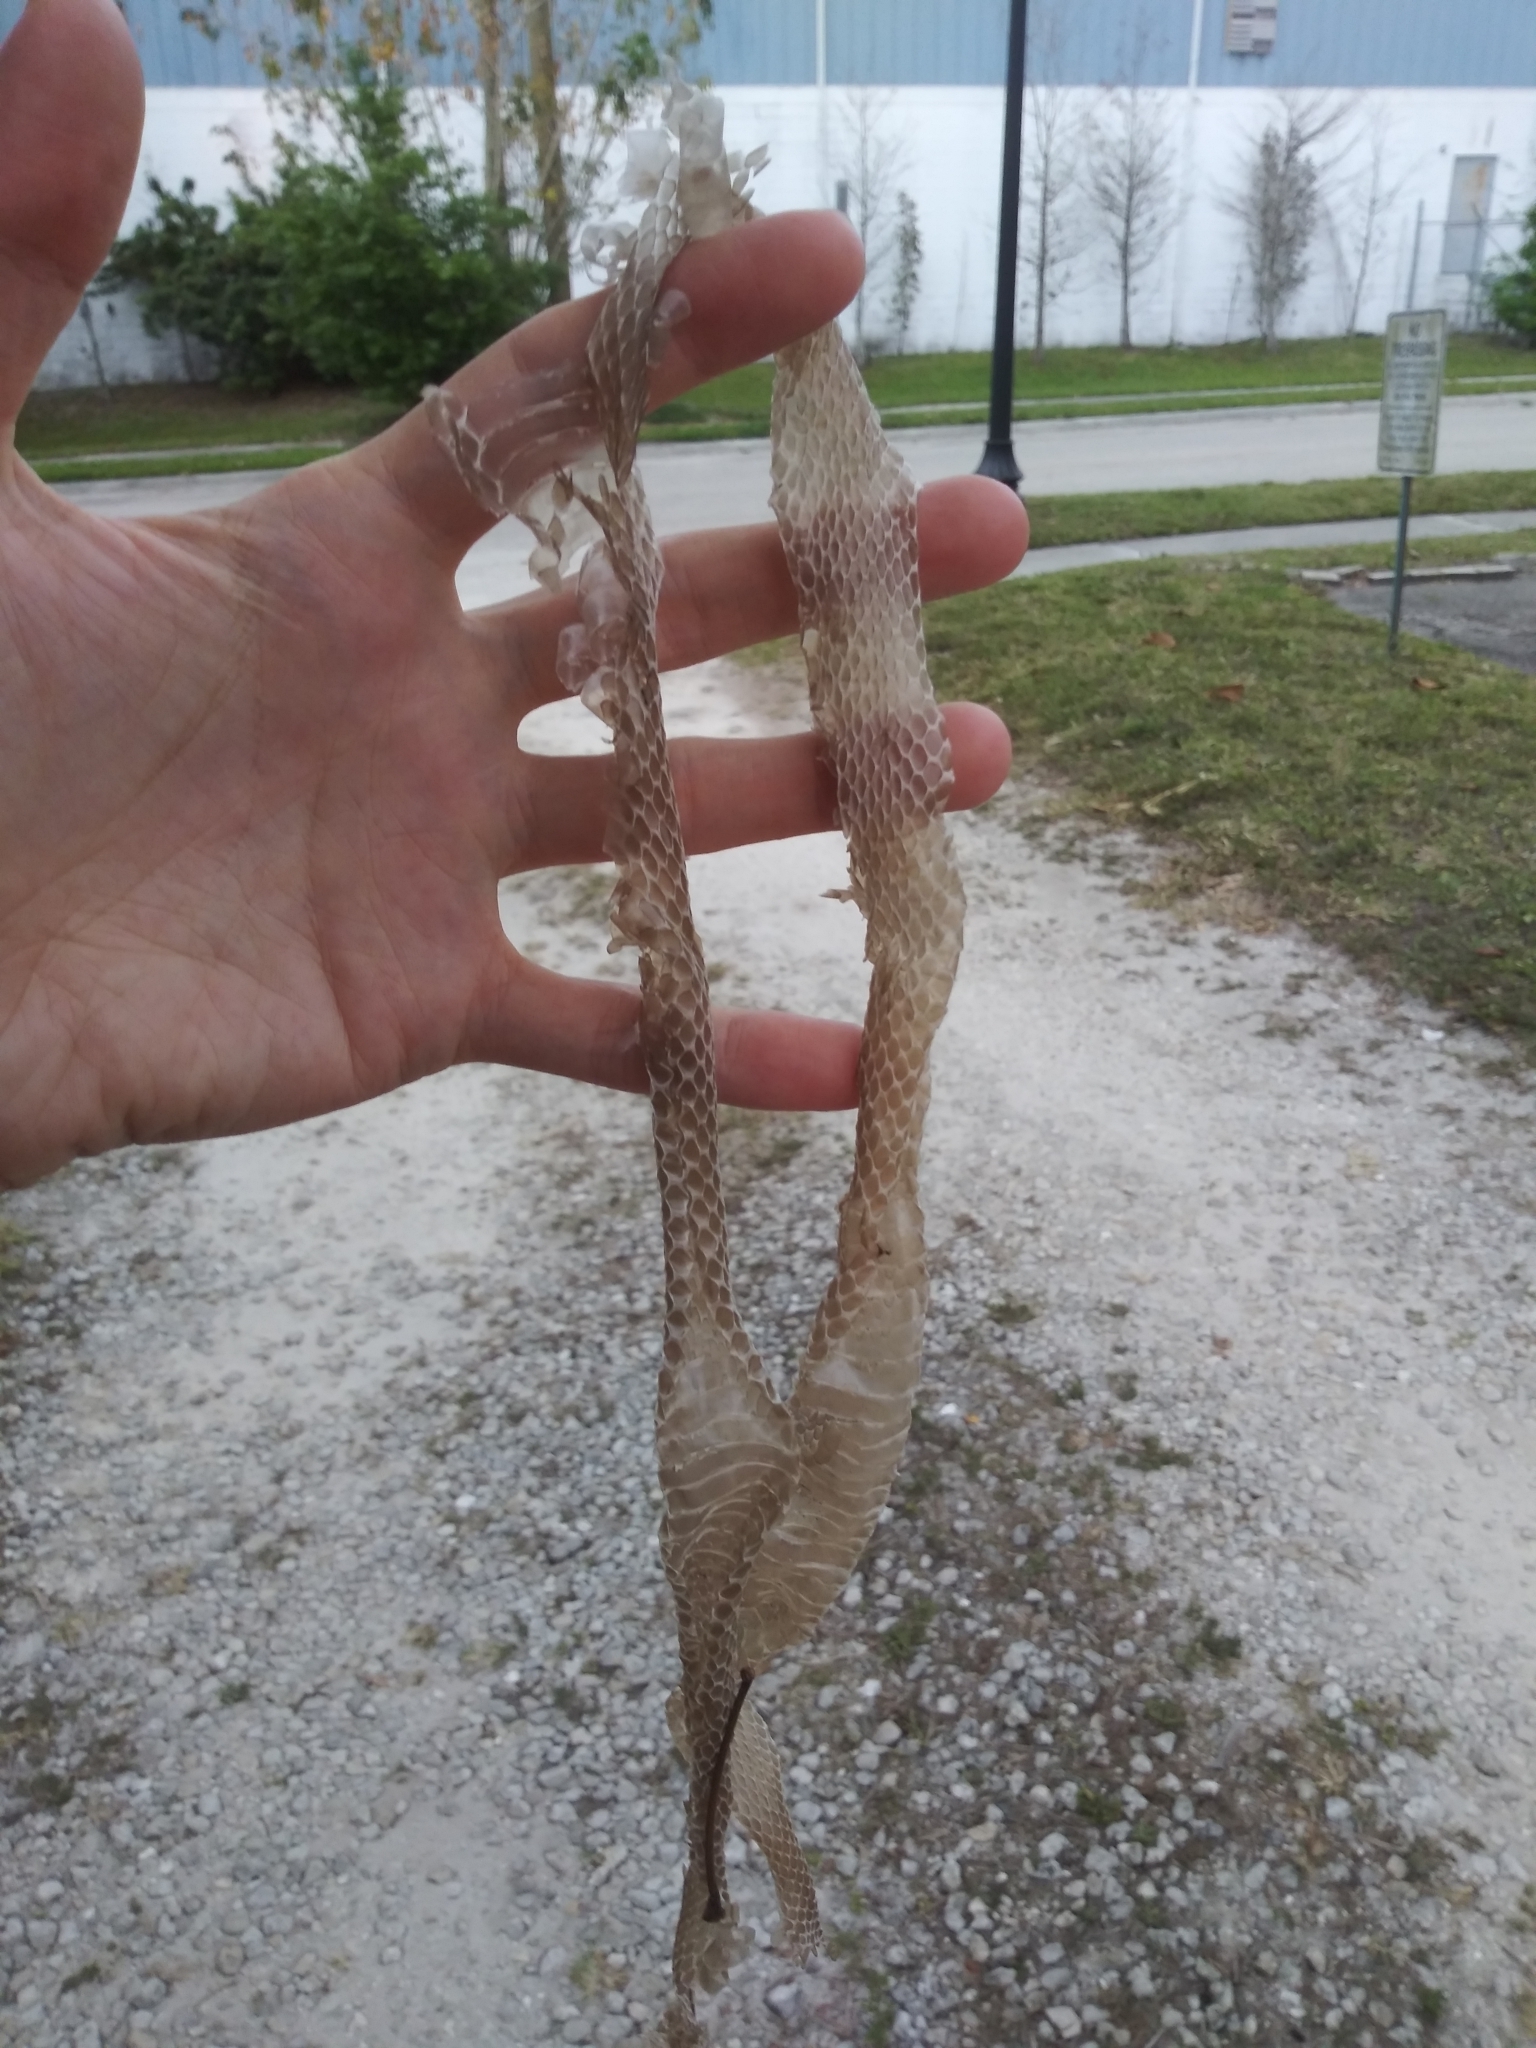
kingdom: Animalia
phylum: Chordata
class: Squamata
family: Colubridae
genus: Coluber
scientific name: Coluber constrictor
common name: Eastern racer
